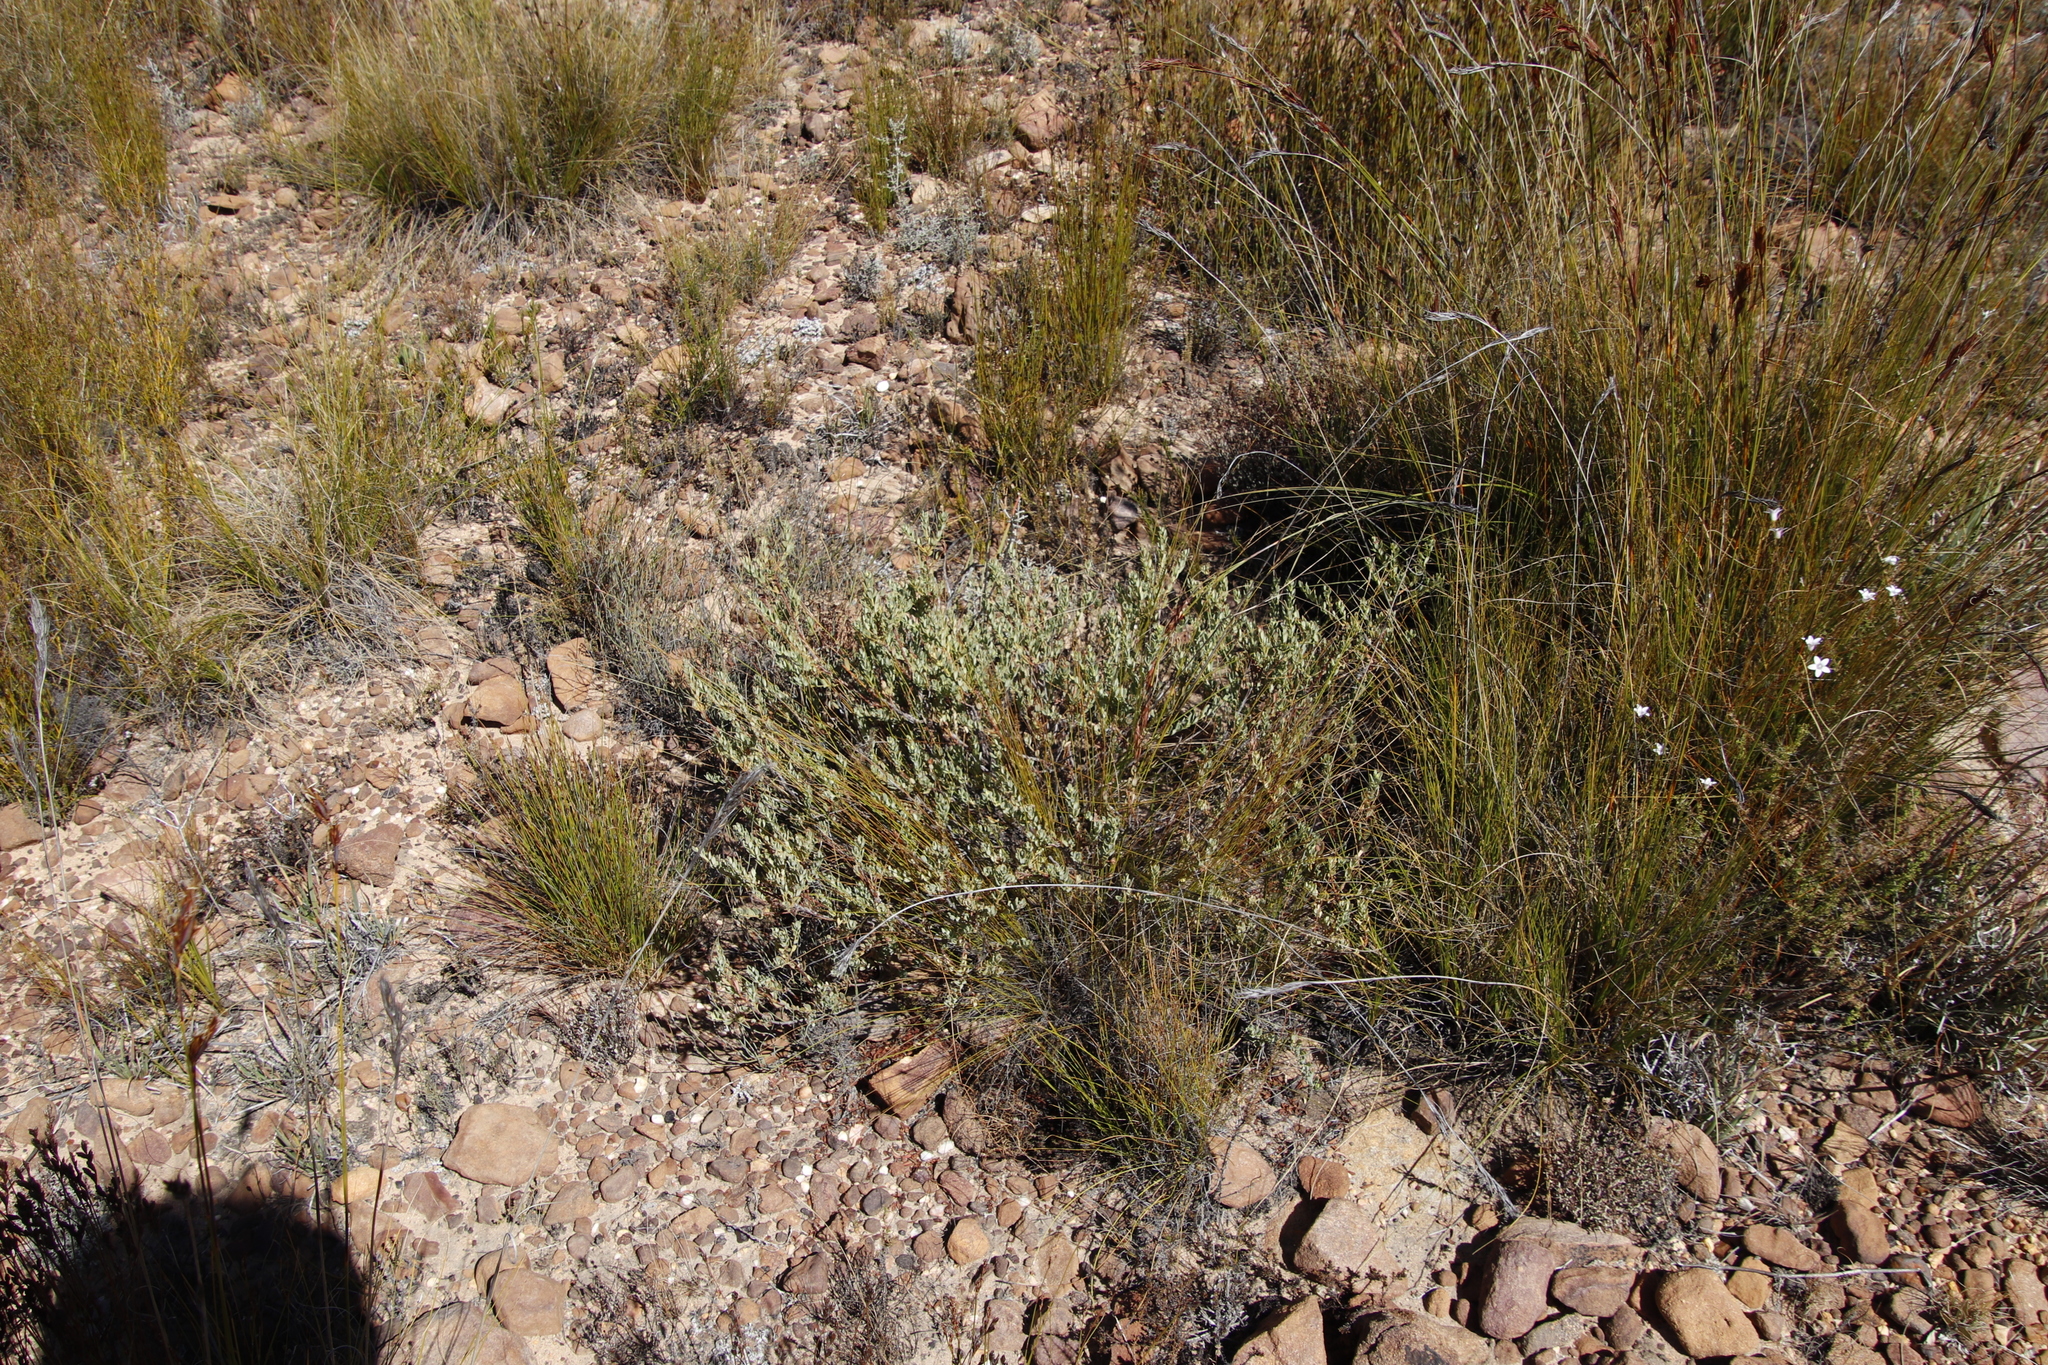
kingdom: Plantae
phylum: Tracheophyta
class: Magnoliopsida
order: Proteales
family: Proteaceae
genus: Leucadendron
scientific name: Leucadendron glaberrimum
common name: Common oily conebush
